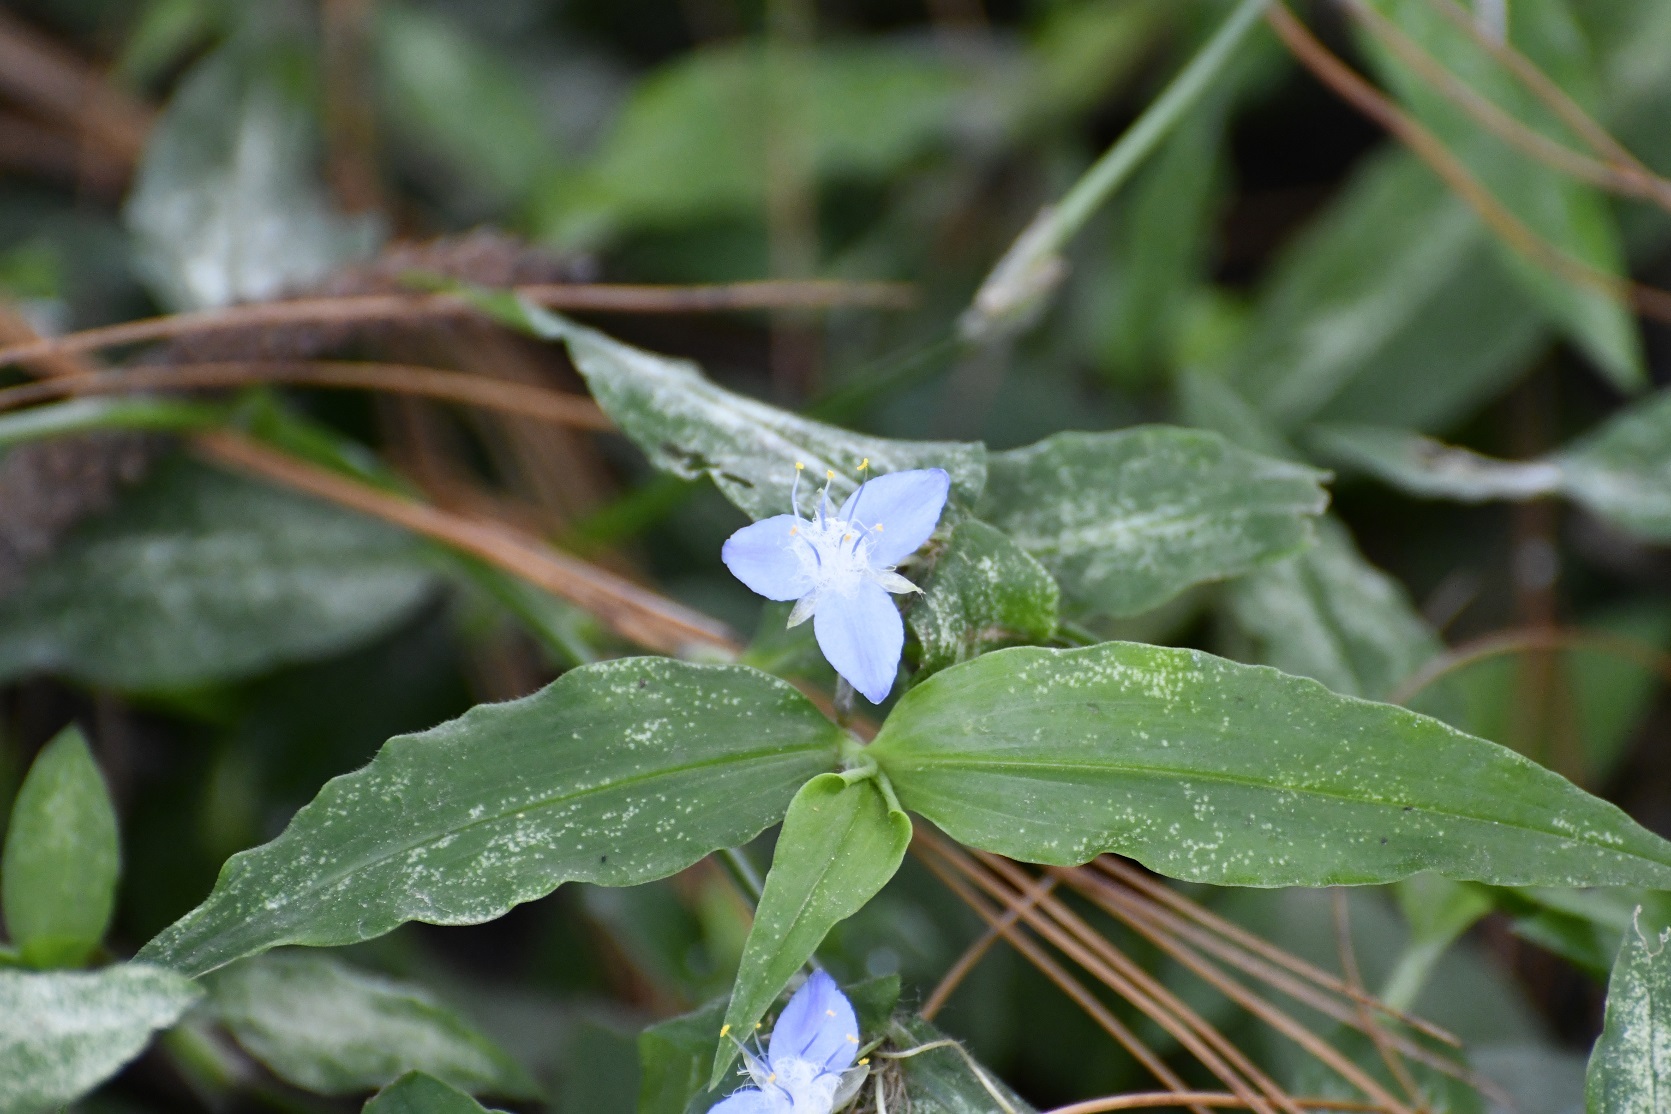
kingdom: Plantae
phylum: Tracheophyta
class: Liliopsida
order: Commelinales
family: Commelinaceae
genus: Elasis
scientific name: Elasis guatemalensis
